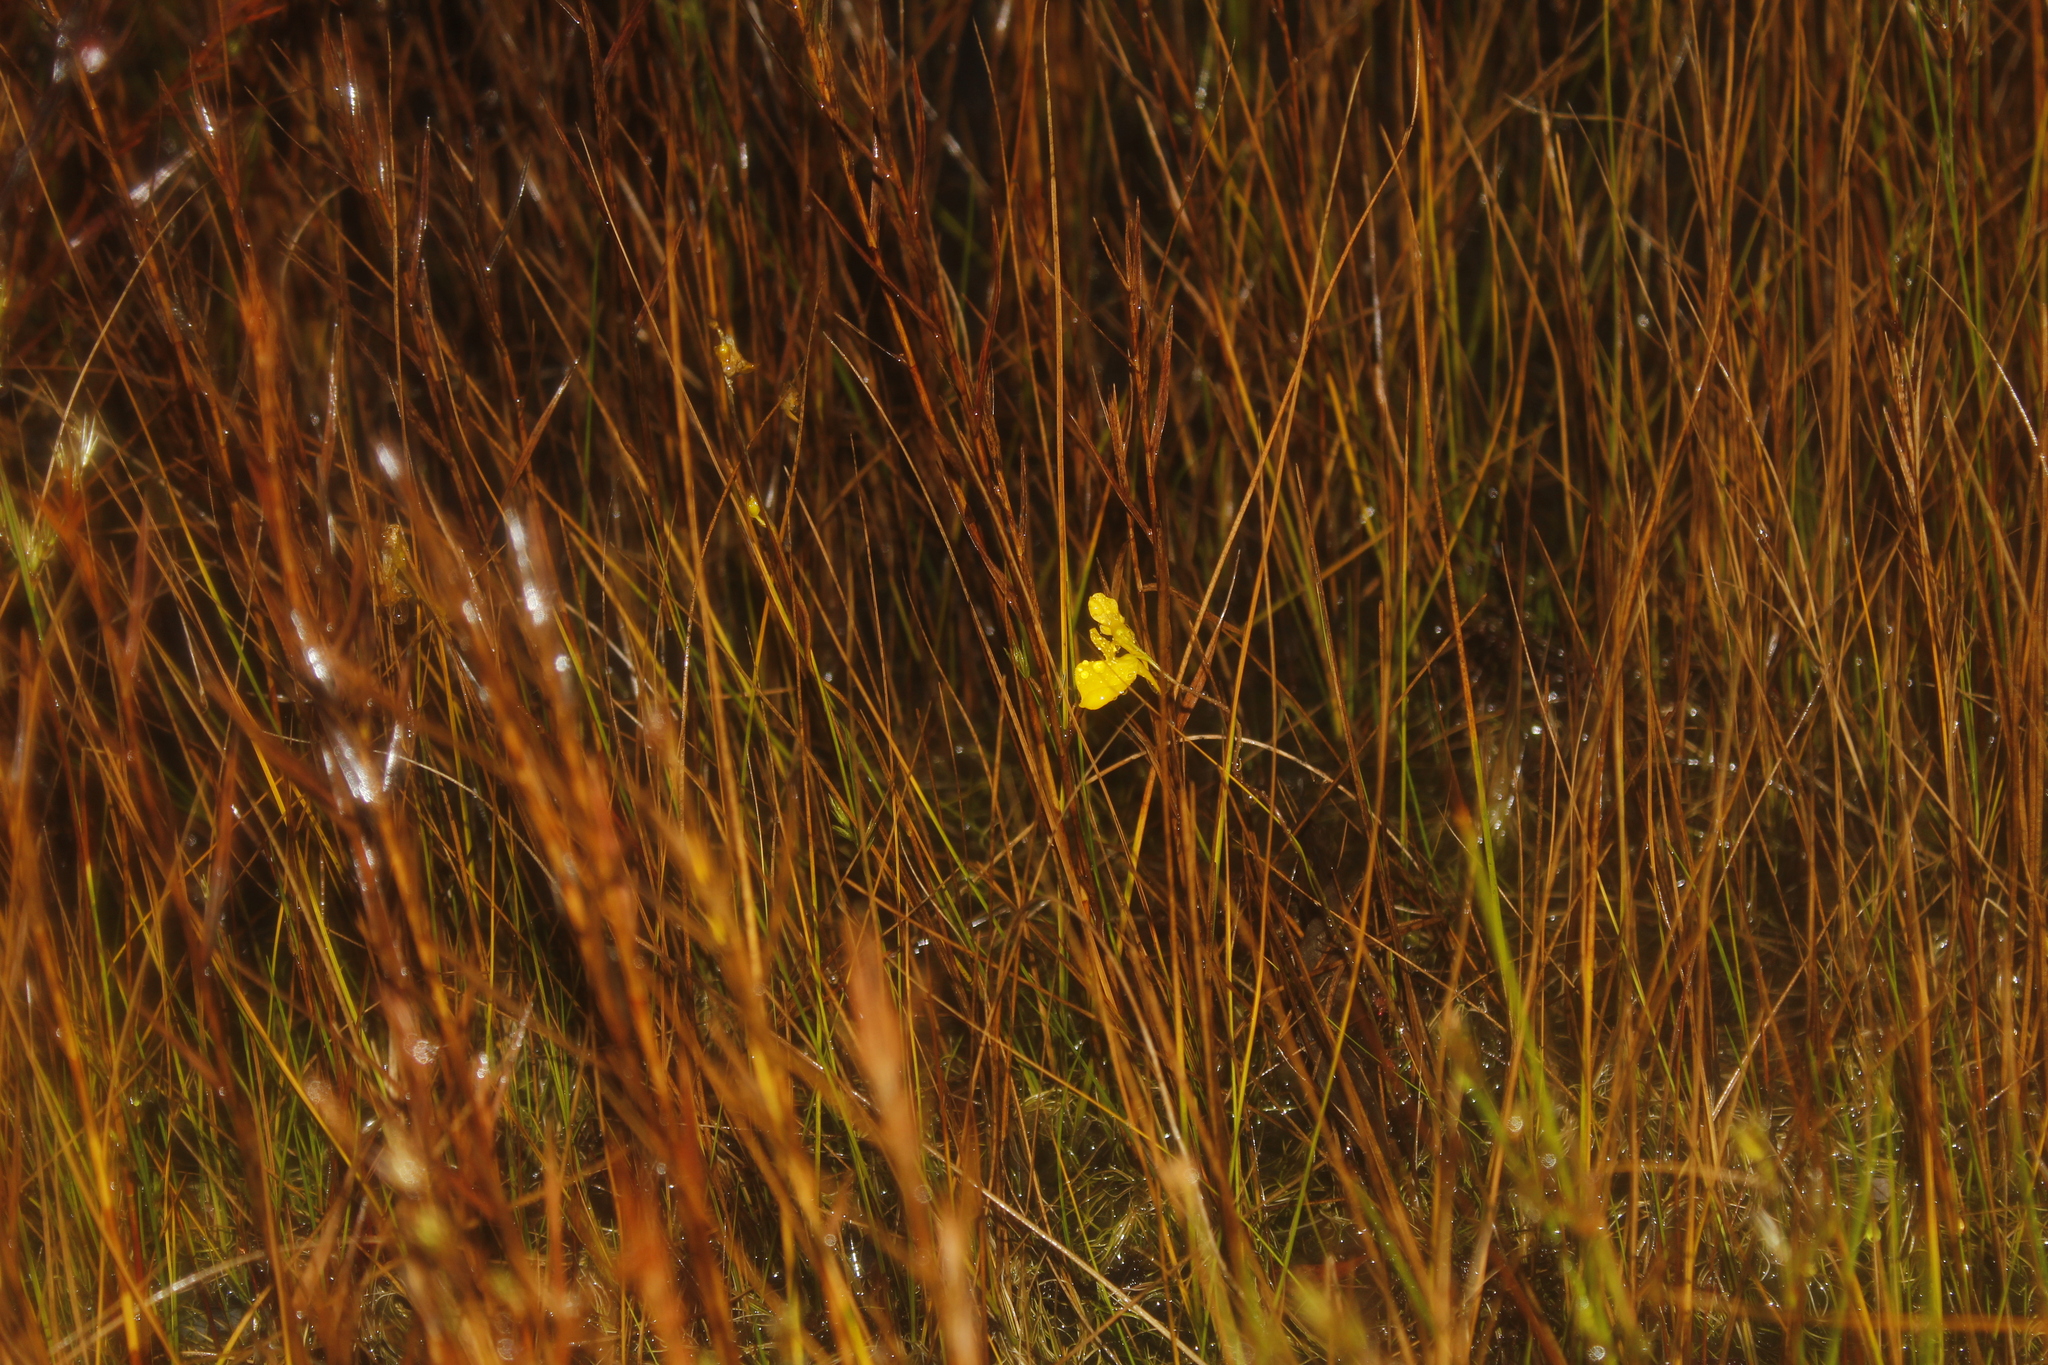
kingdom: Plantae
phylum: Tracheophyta
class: Magnoliopsida
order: Lamiales
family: Lentibulariaceae
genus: Utricularia
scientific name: Utricularia cornuta
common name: Horned bladderwort
